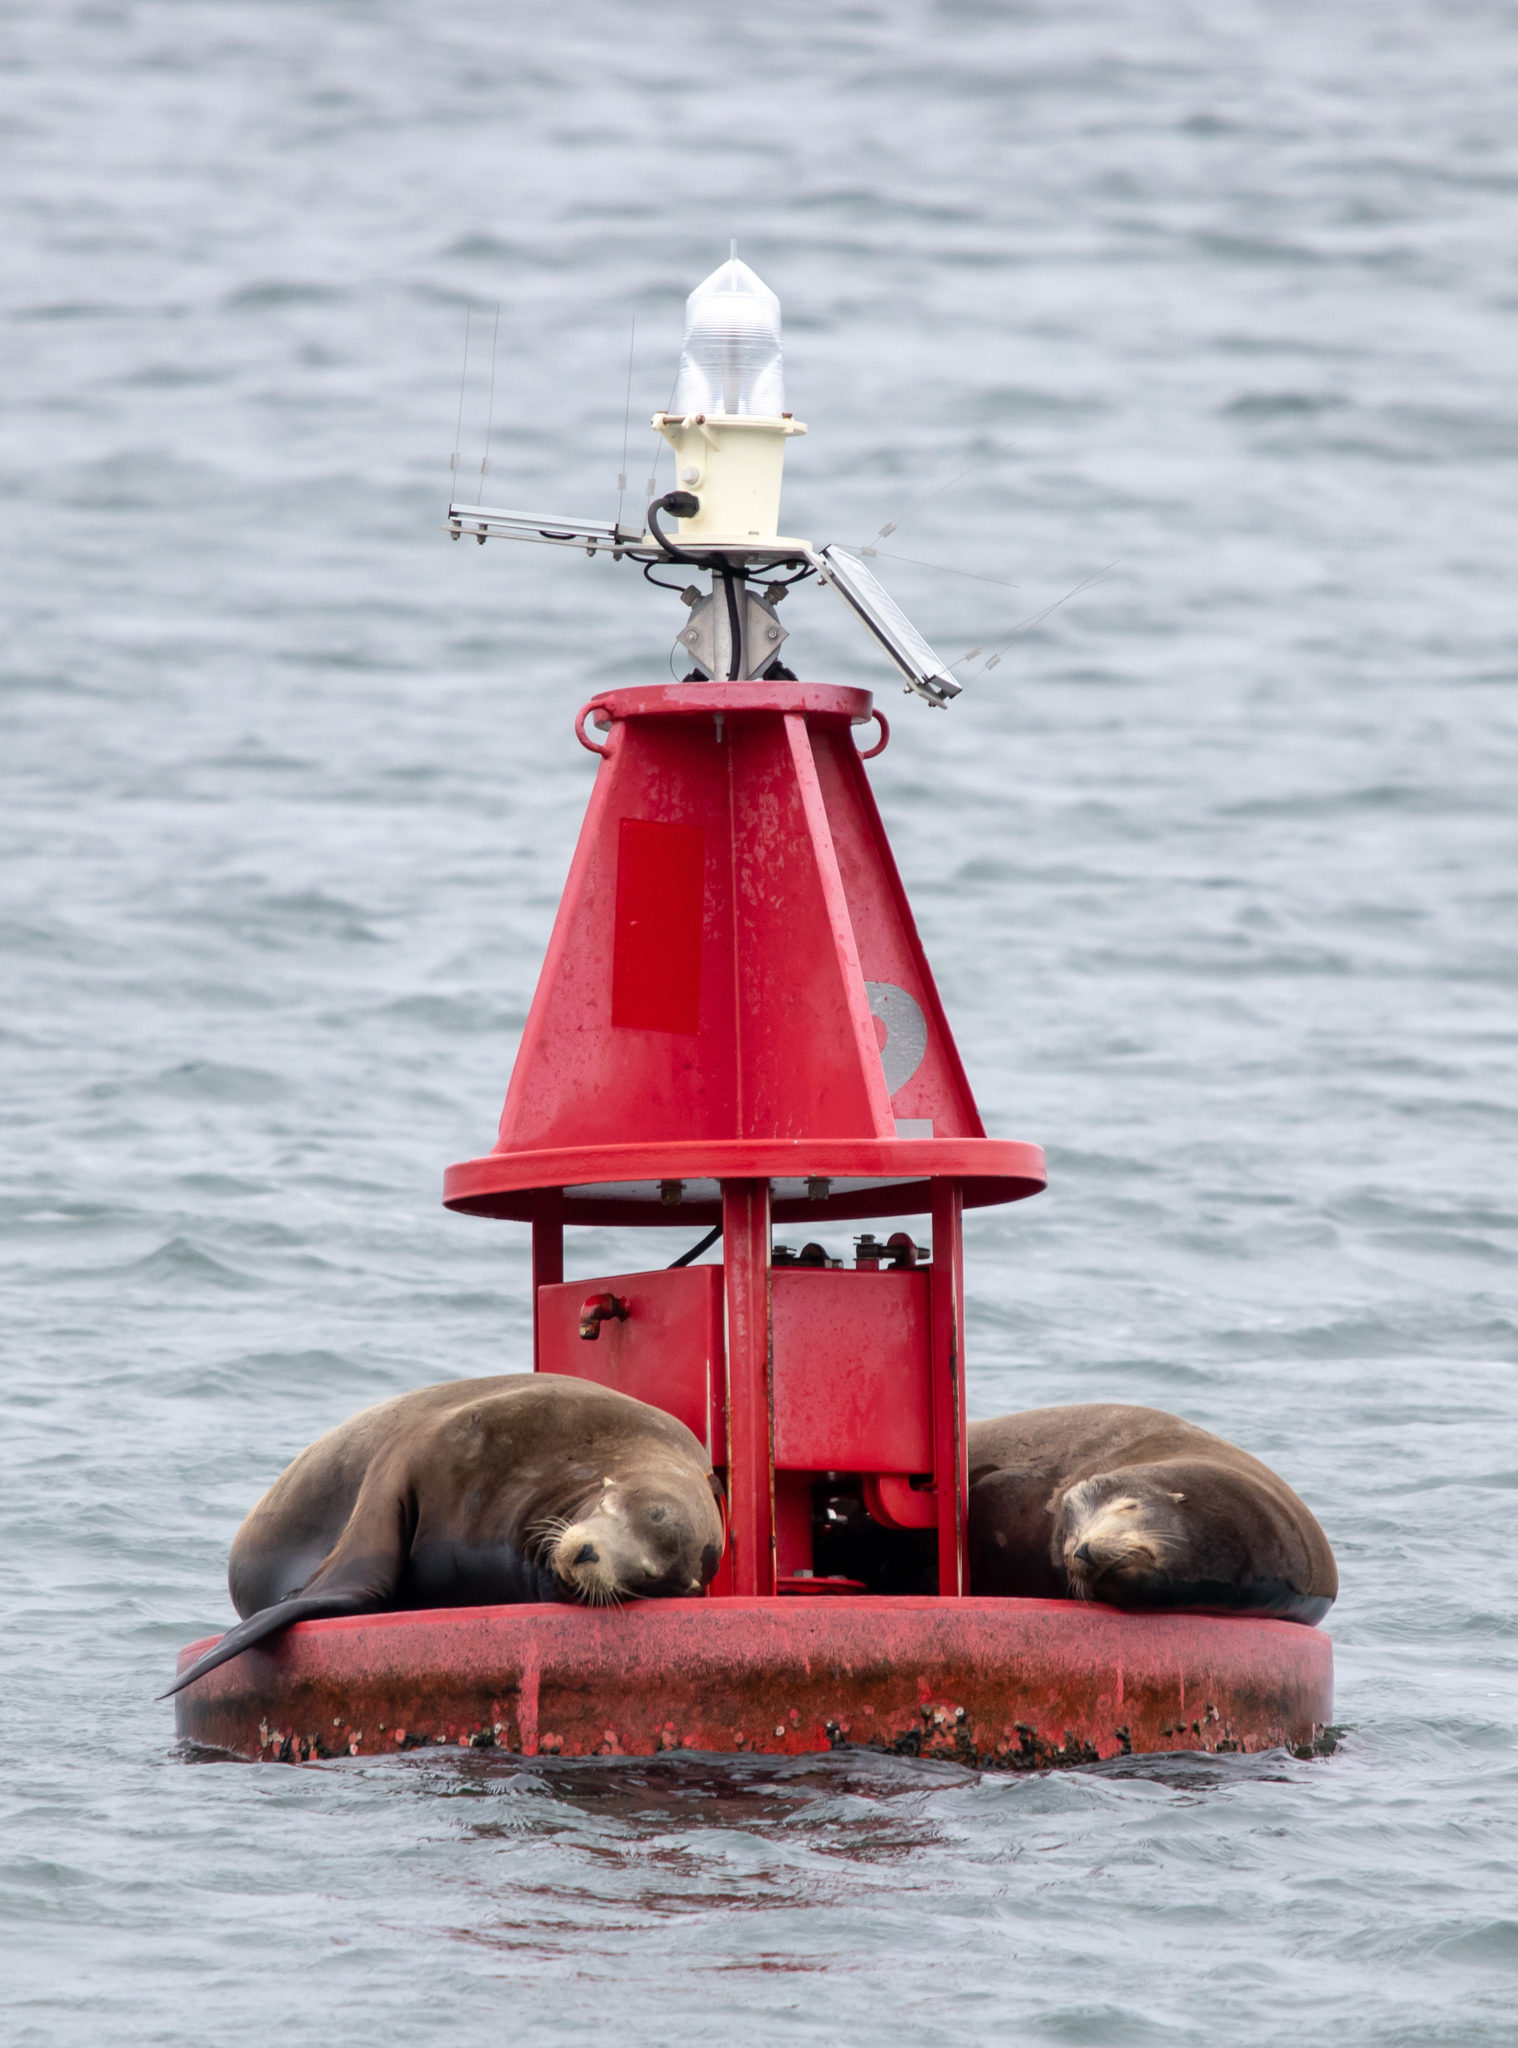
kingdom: Animalia
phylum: Chordata
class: Mammalia
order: Carnivora
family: Otariidae
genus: Zalophus
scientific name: Zalophus californianus
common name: California sea lion
